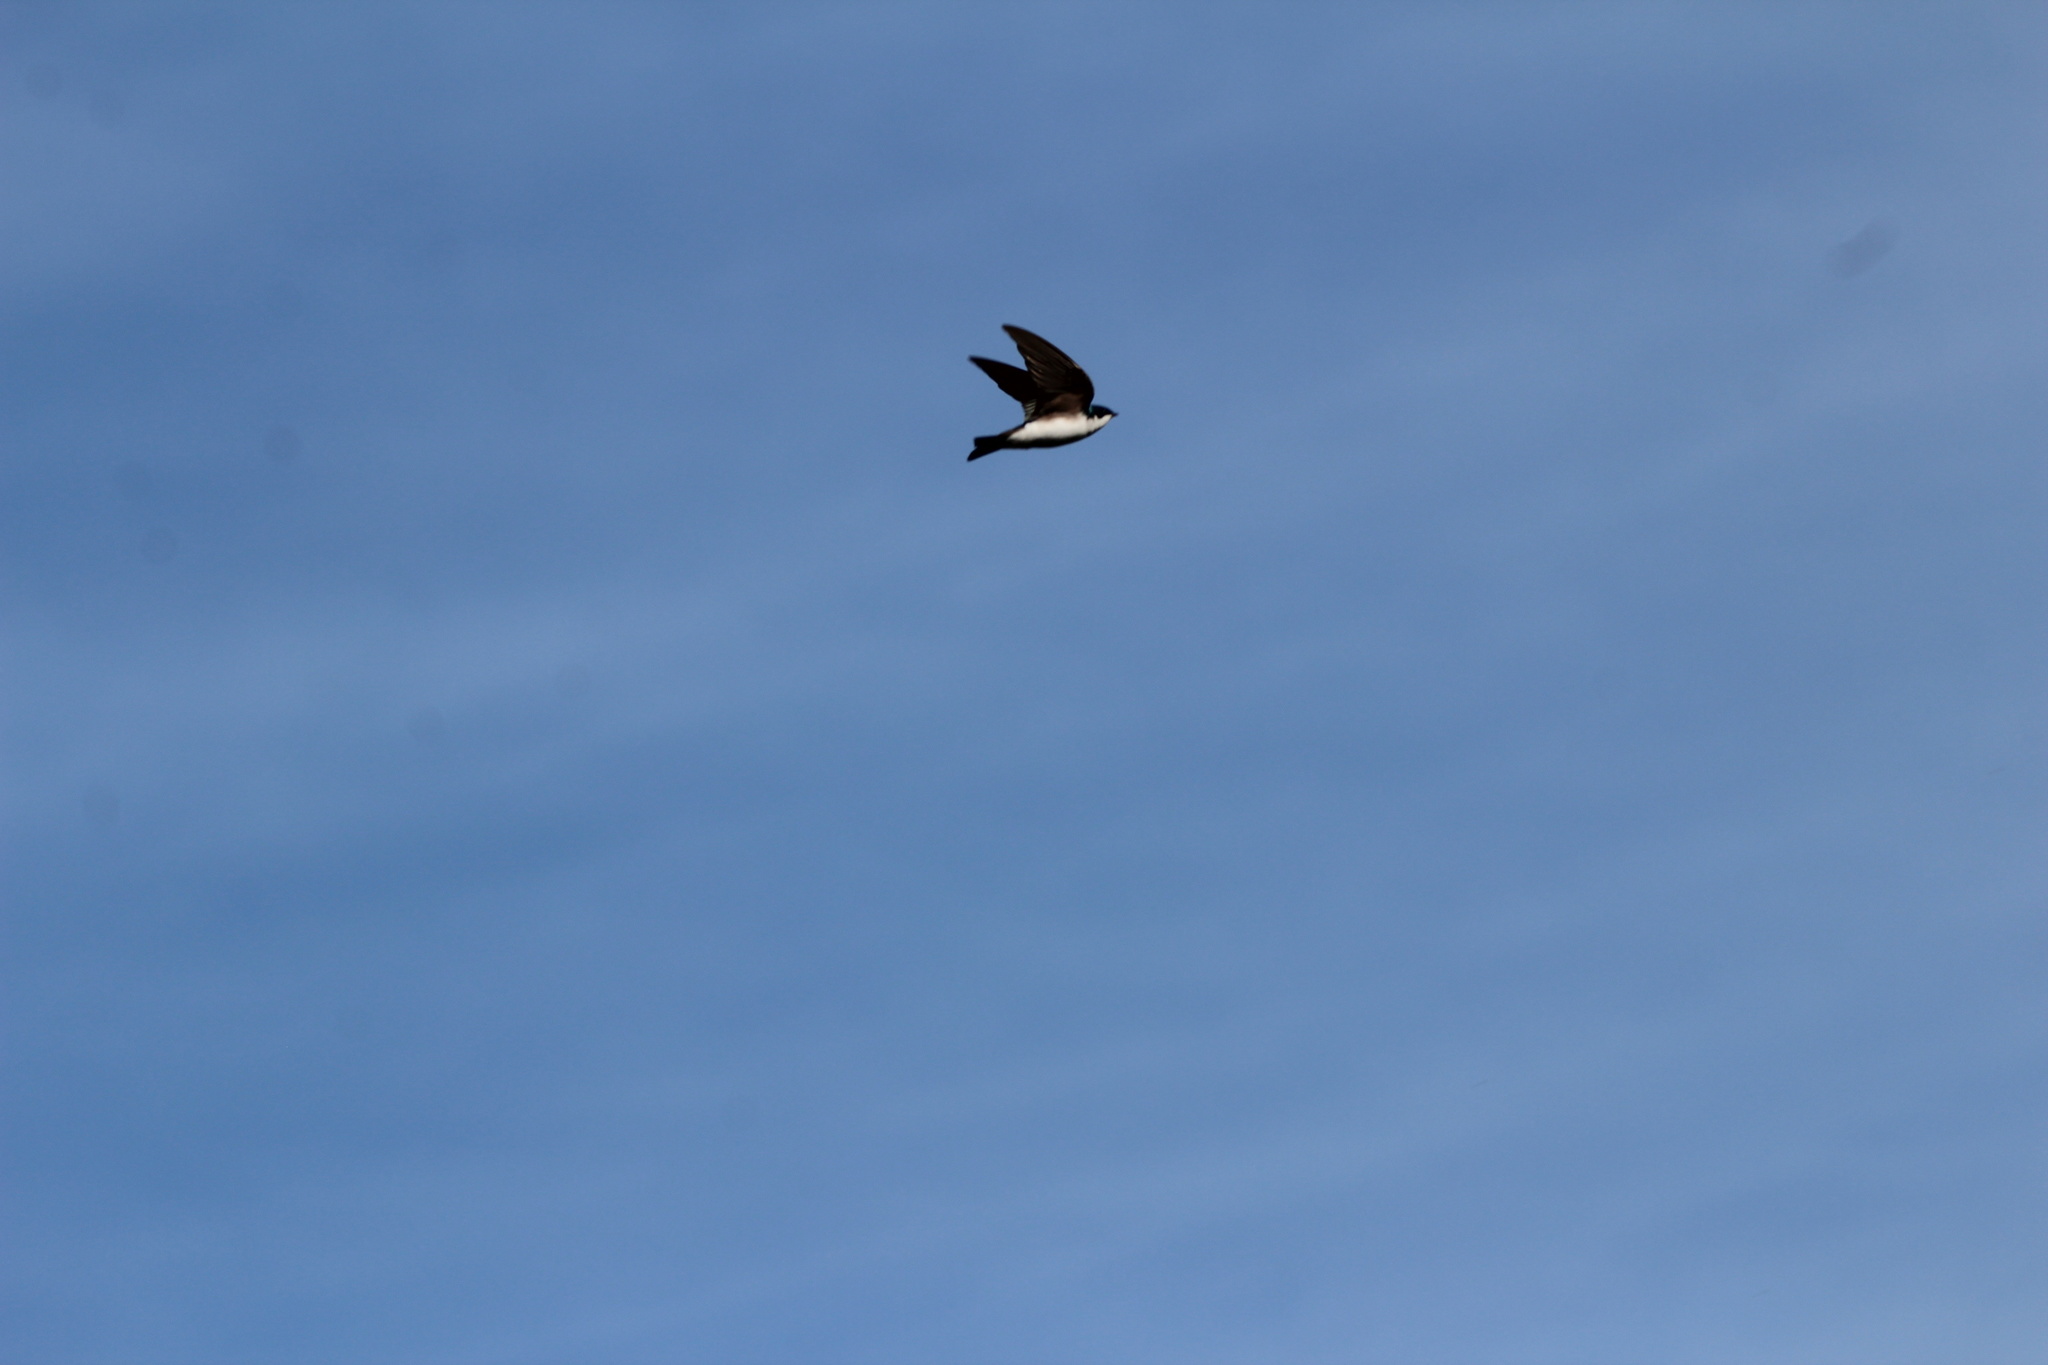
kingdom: Animalia
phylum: Chordata
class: Aves
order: Passeriformes
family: Hirundinidae
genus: Tachycineta
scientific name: Tachycineta bicolor
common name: Tree swallow
